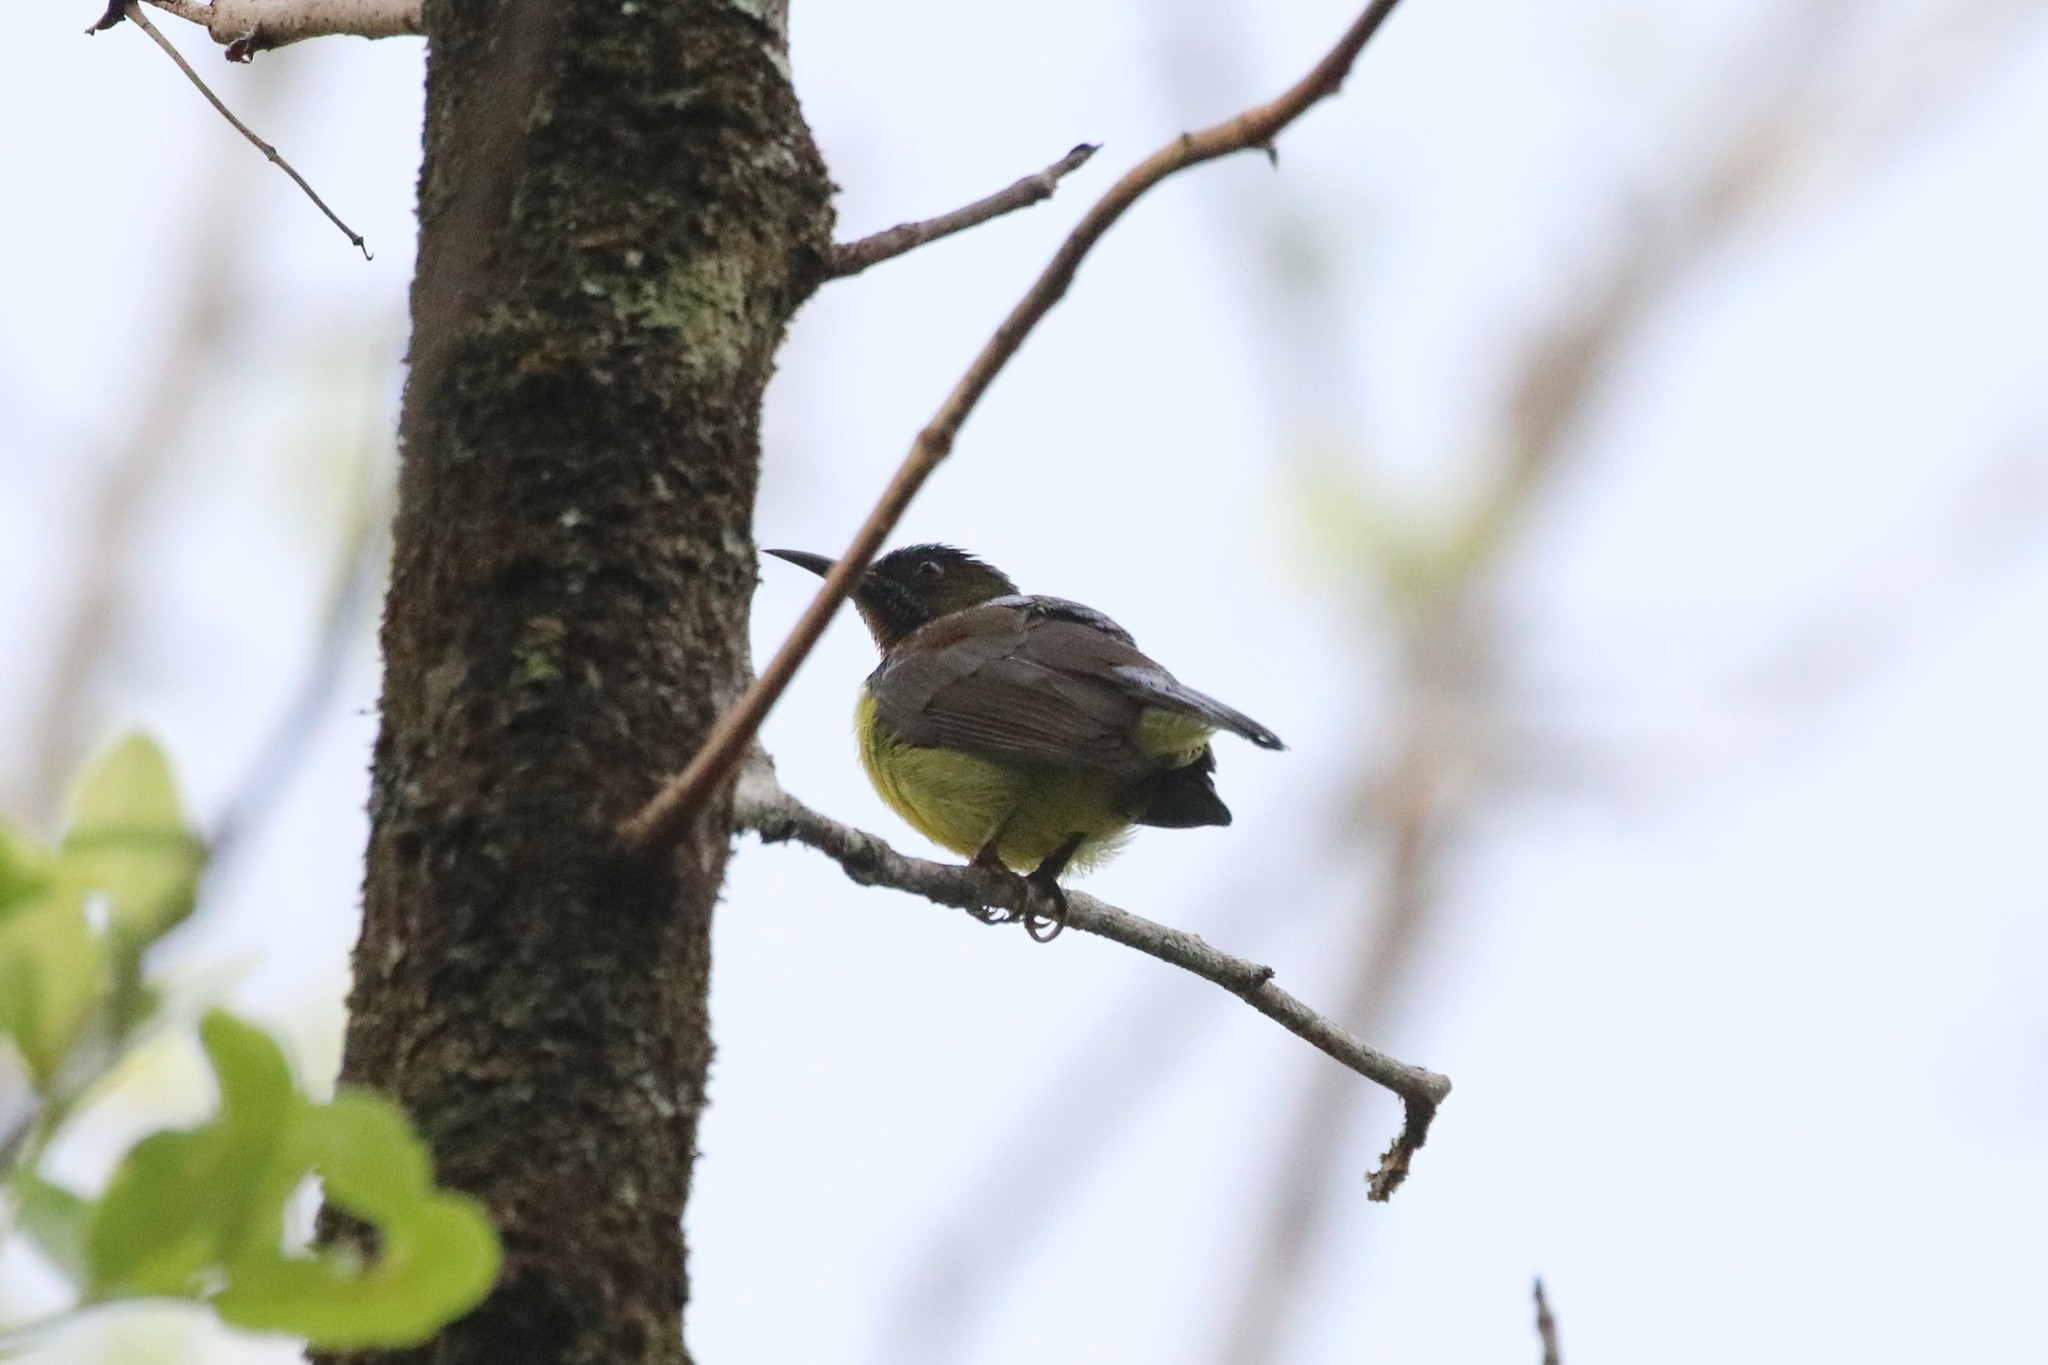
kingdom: Animalia
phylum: Chordata
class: Aves
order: Passeriformes
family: Nectariniidae
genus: Anthreptes
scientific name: Anthreptes malacensis
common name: Brown-throated sunbird
